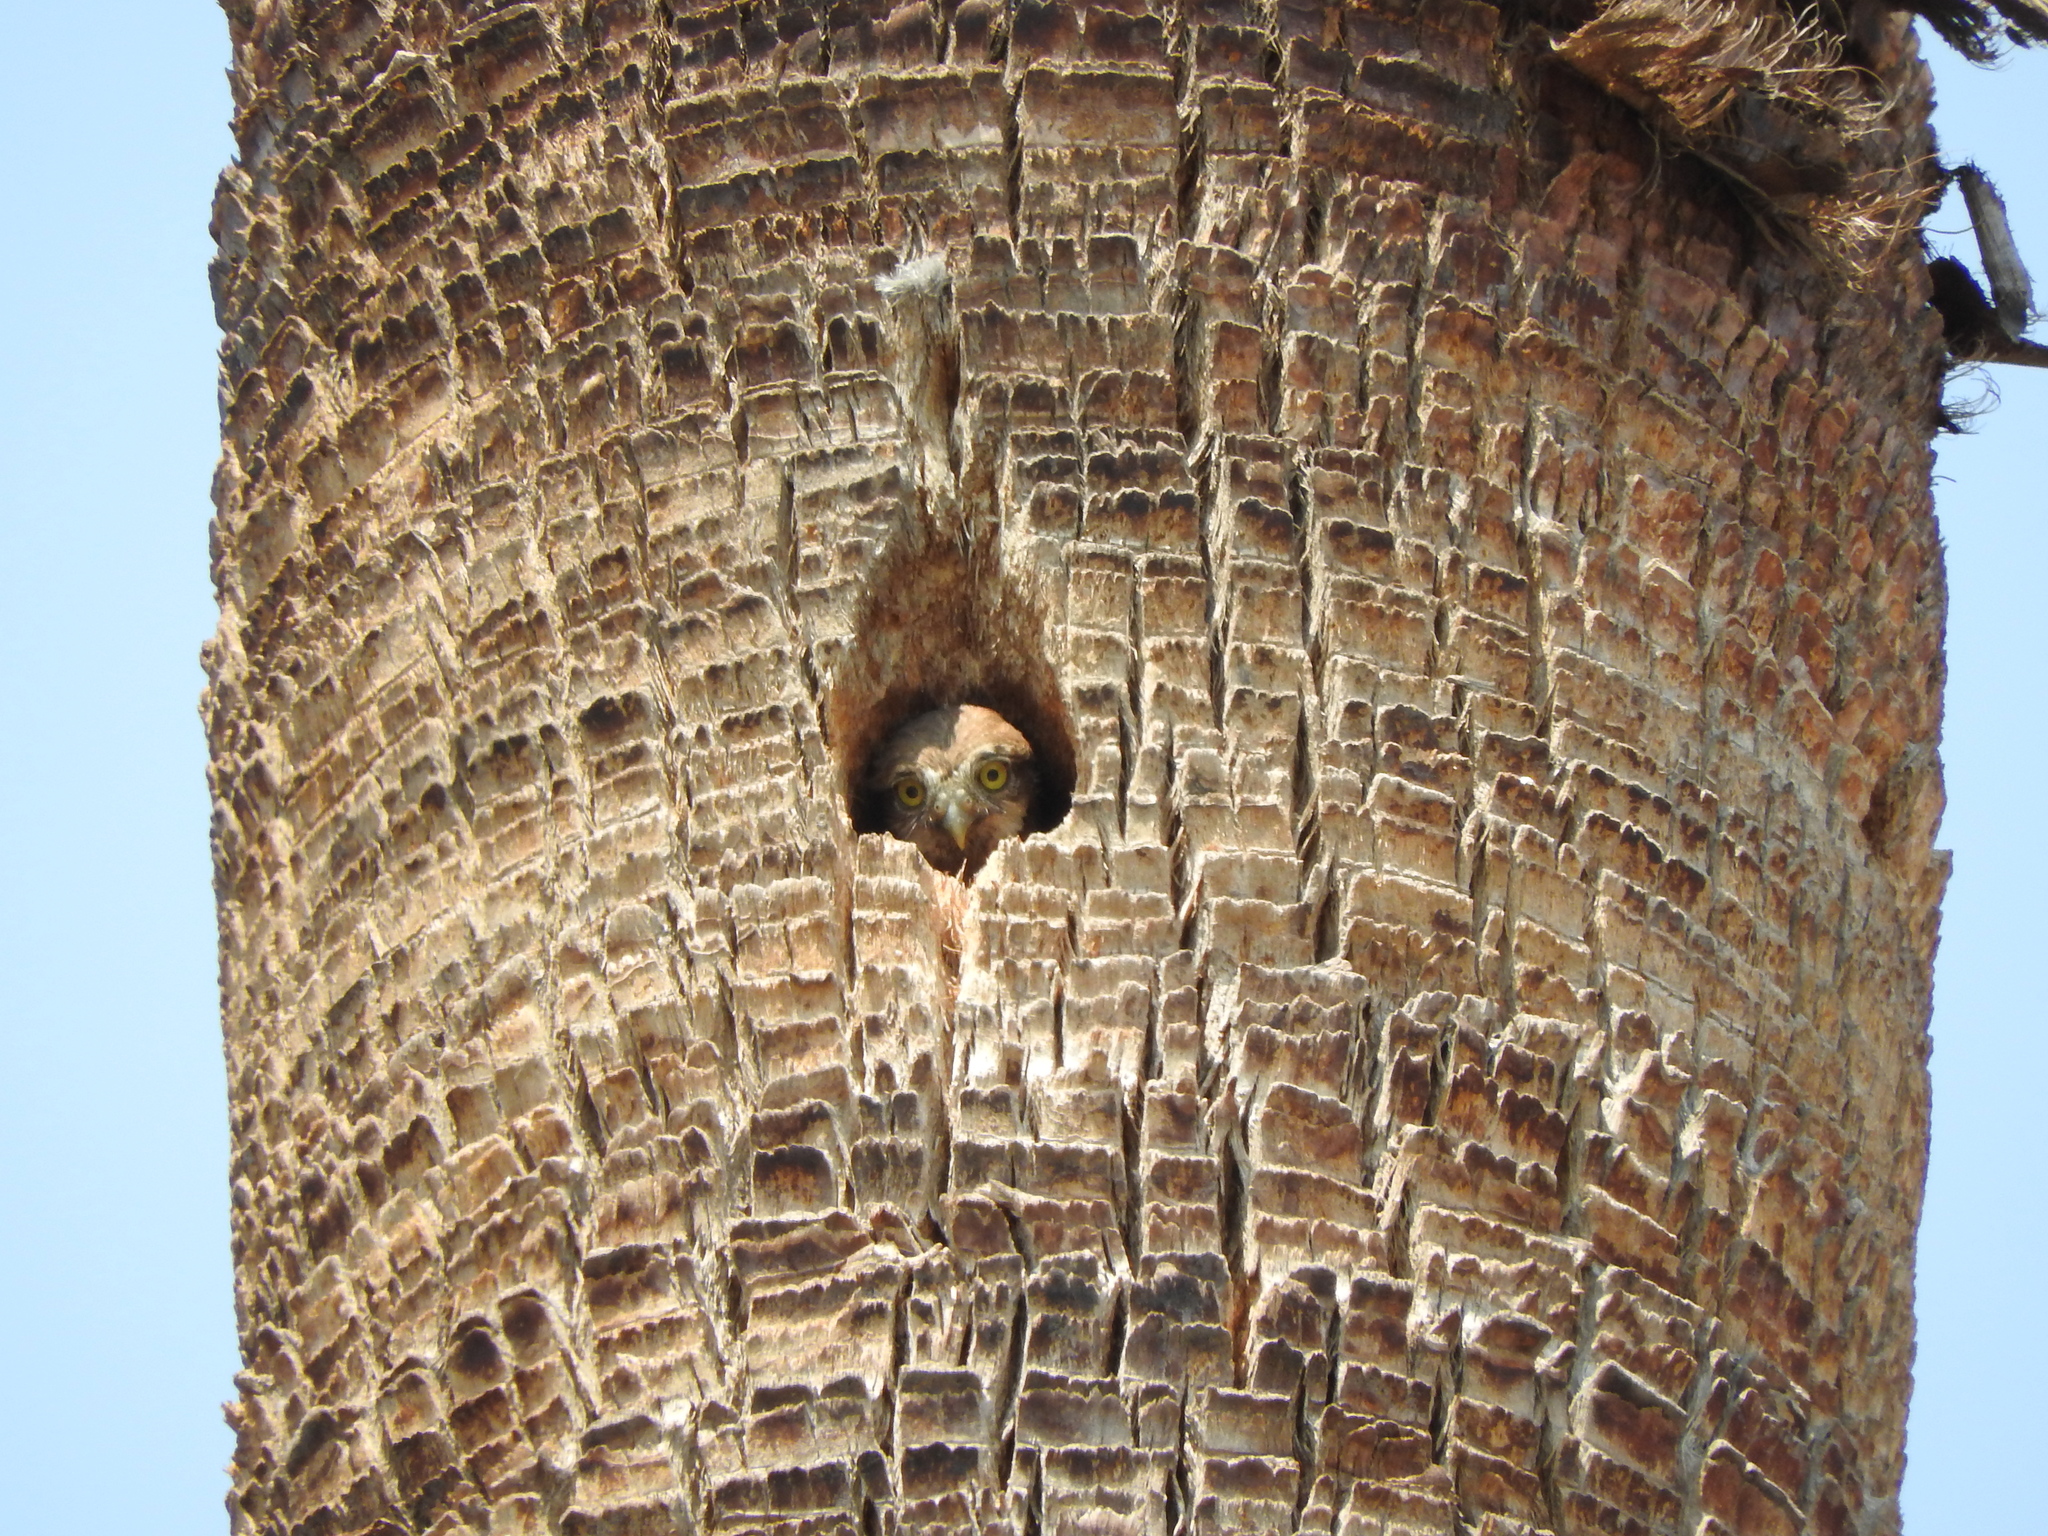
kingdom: Animalia
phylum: Chordata
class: Aves
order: Strigiformes
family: Strigidae
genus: Glaucidium
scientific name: Glaucidium brasilianum
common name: Ferruginous pygmy-owl
